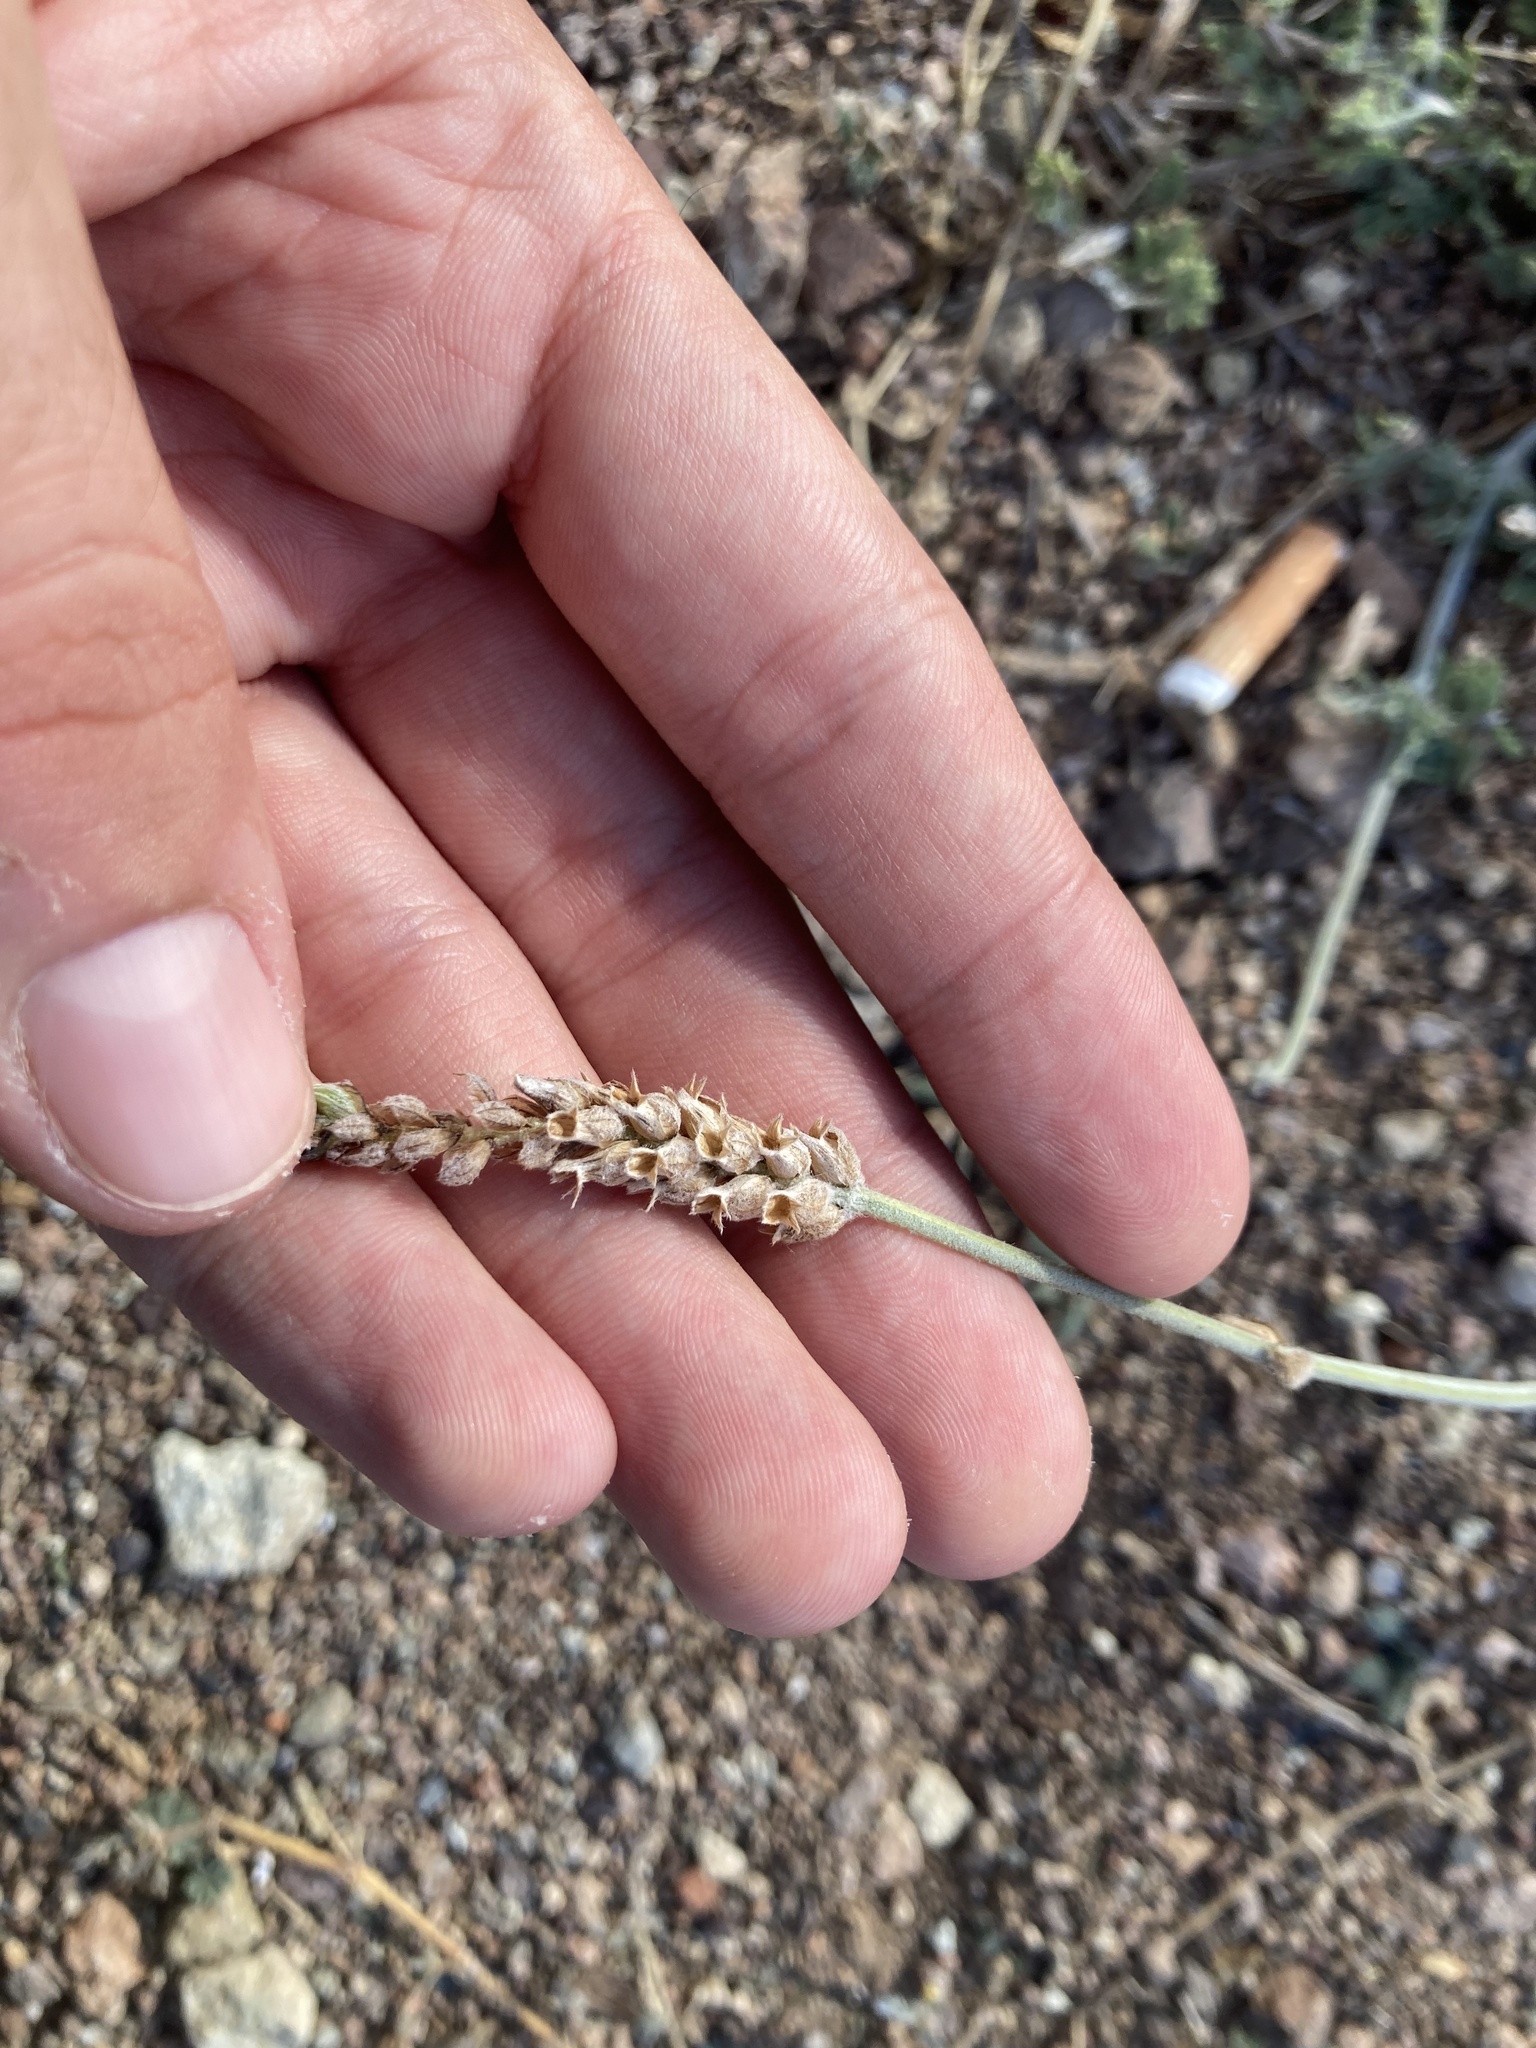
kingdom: Plantae
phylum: Tracheophyta
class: Magnoliopsida
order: Lamiales
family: Lamiaceae
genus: Lavandula
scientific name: Lavandula multifida
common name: Fern-leaf lavender
